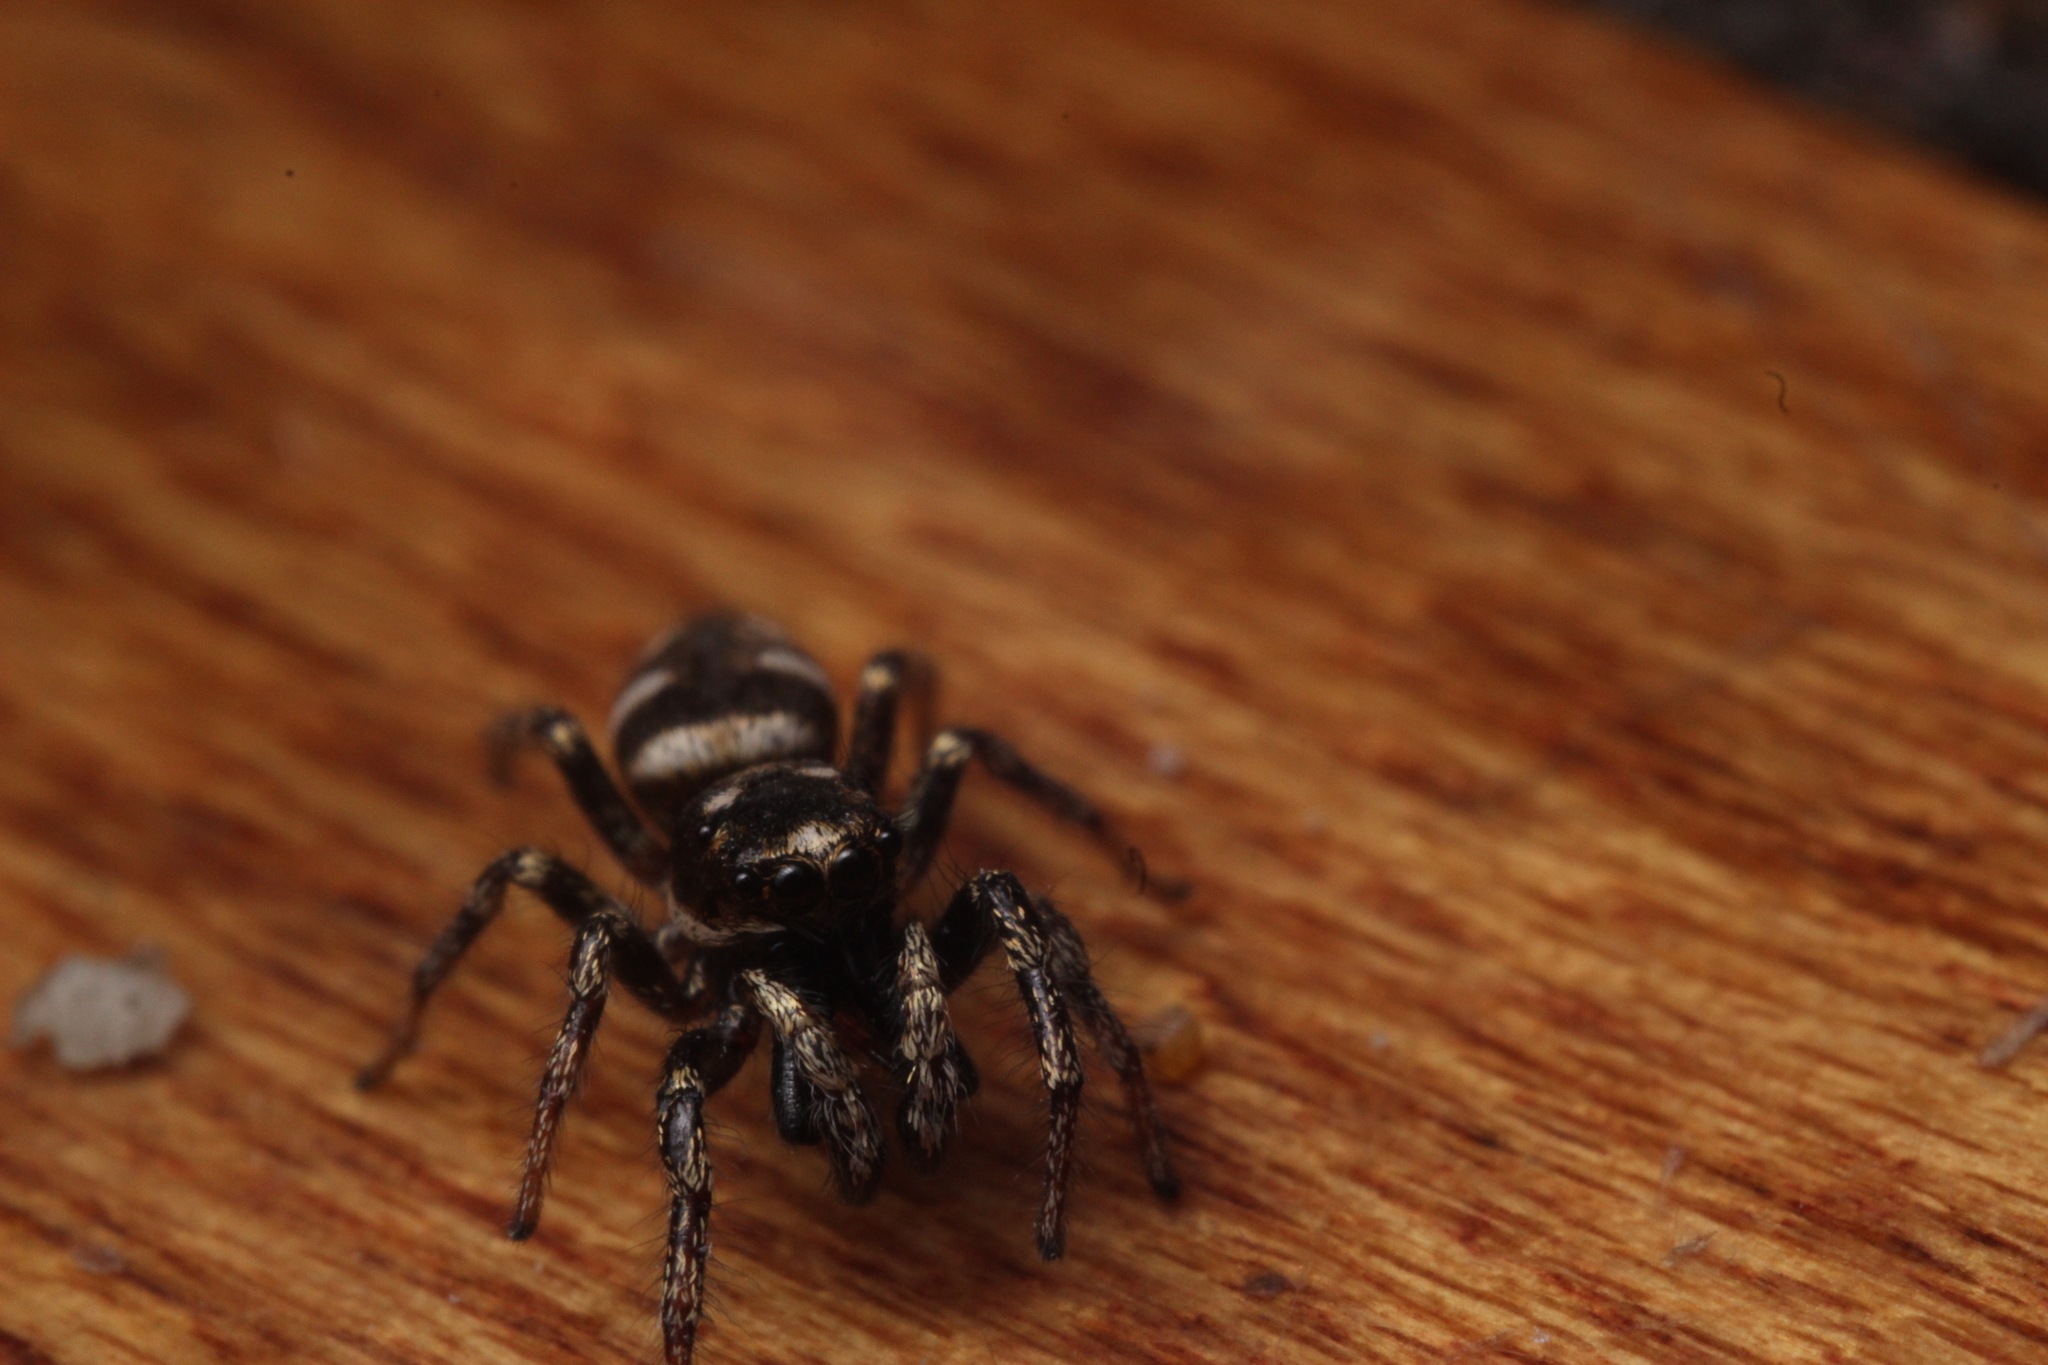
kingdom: Animalia
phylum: Arthropoda
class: Arachnida
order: Araneae
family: Salticidae
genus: Salticus
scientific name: Salticus scenicus
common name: Zebra jumper
